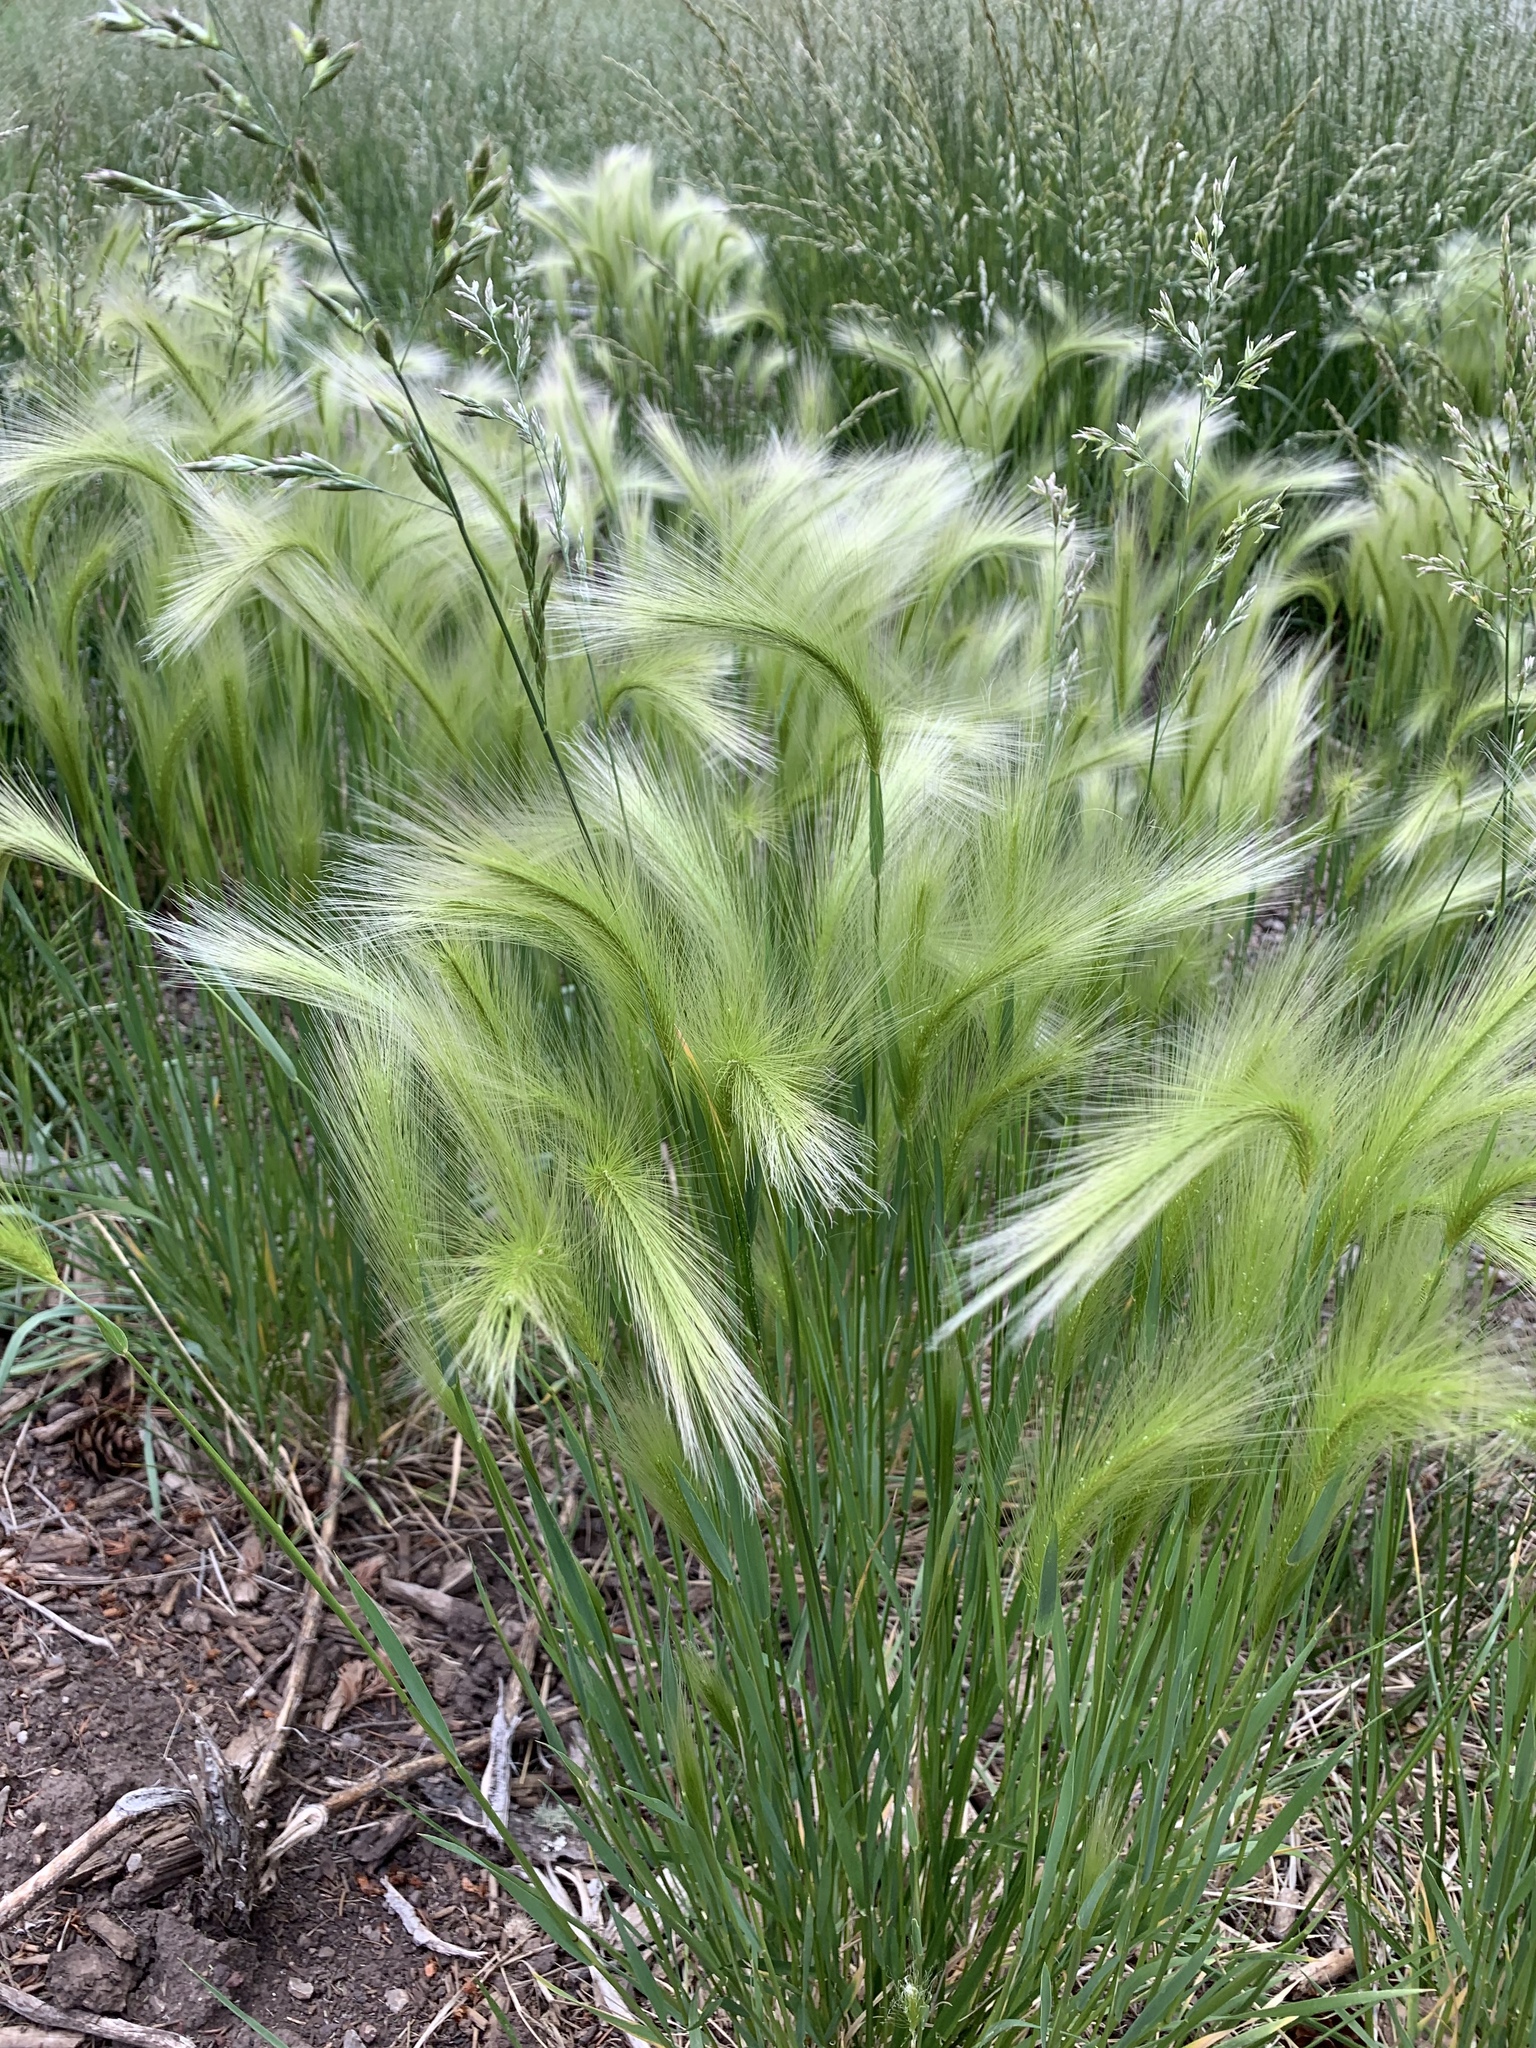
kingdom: Plantae
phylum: Tracheophyta
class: Liliopsida
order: Poales
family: Poaceae
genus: Hordeum
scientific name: Hordeum jubatum
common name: Foxtail barley
